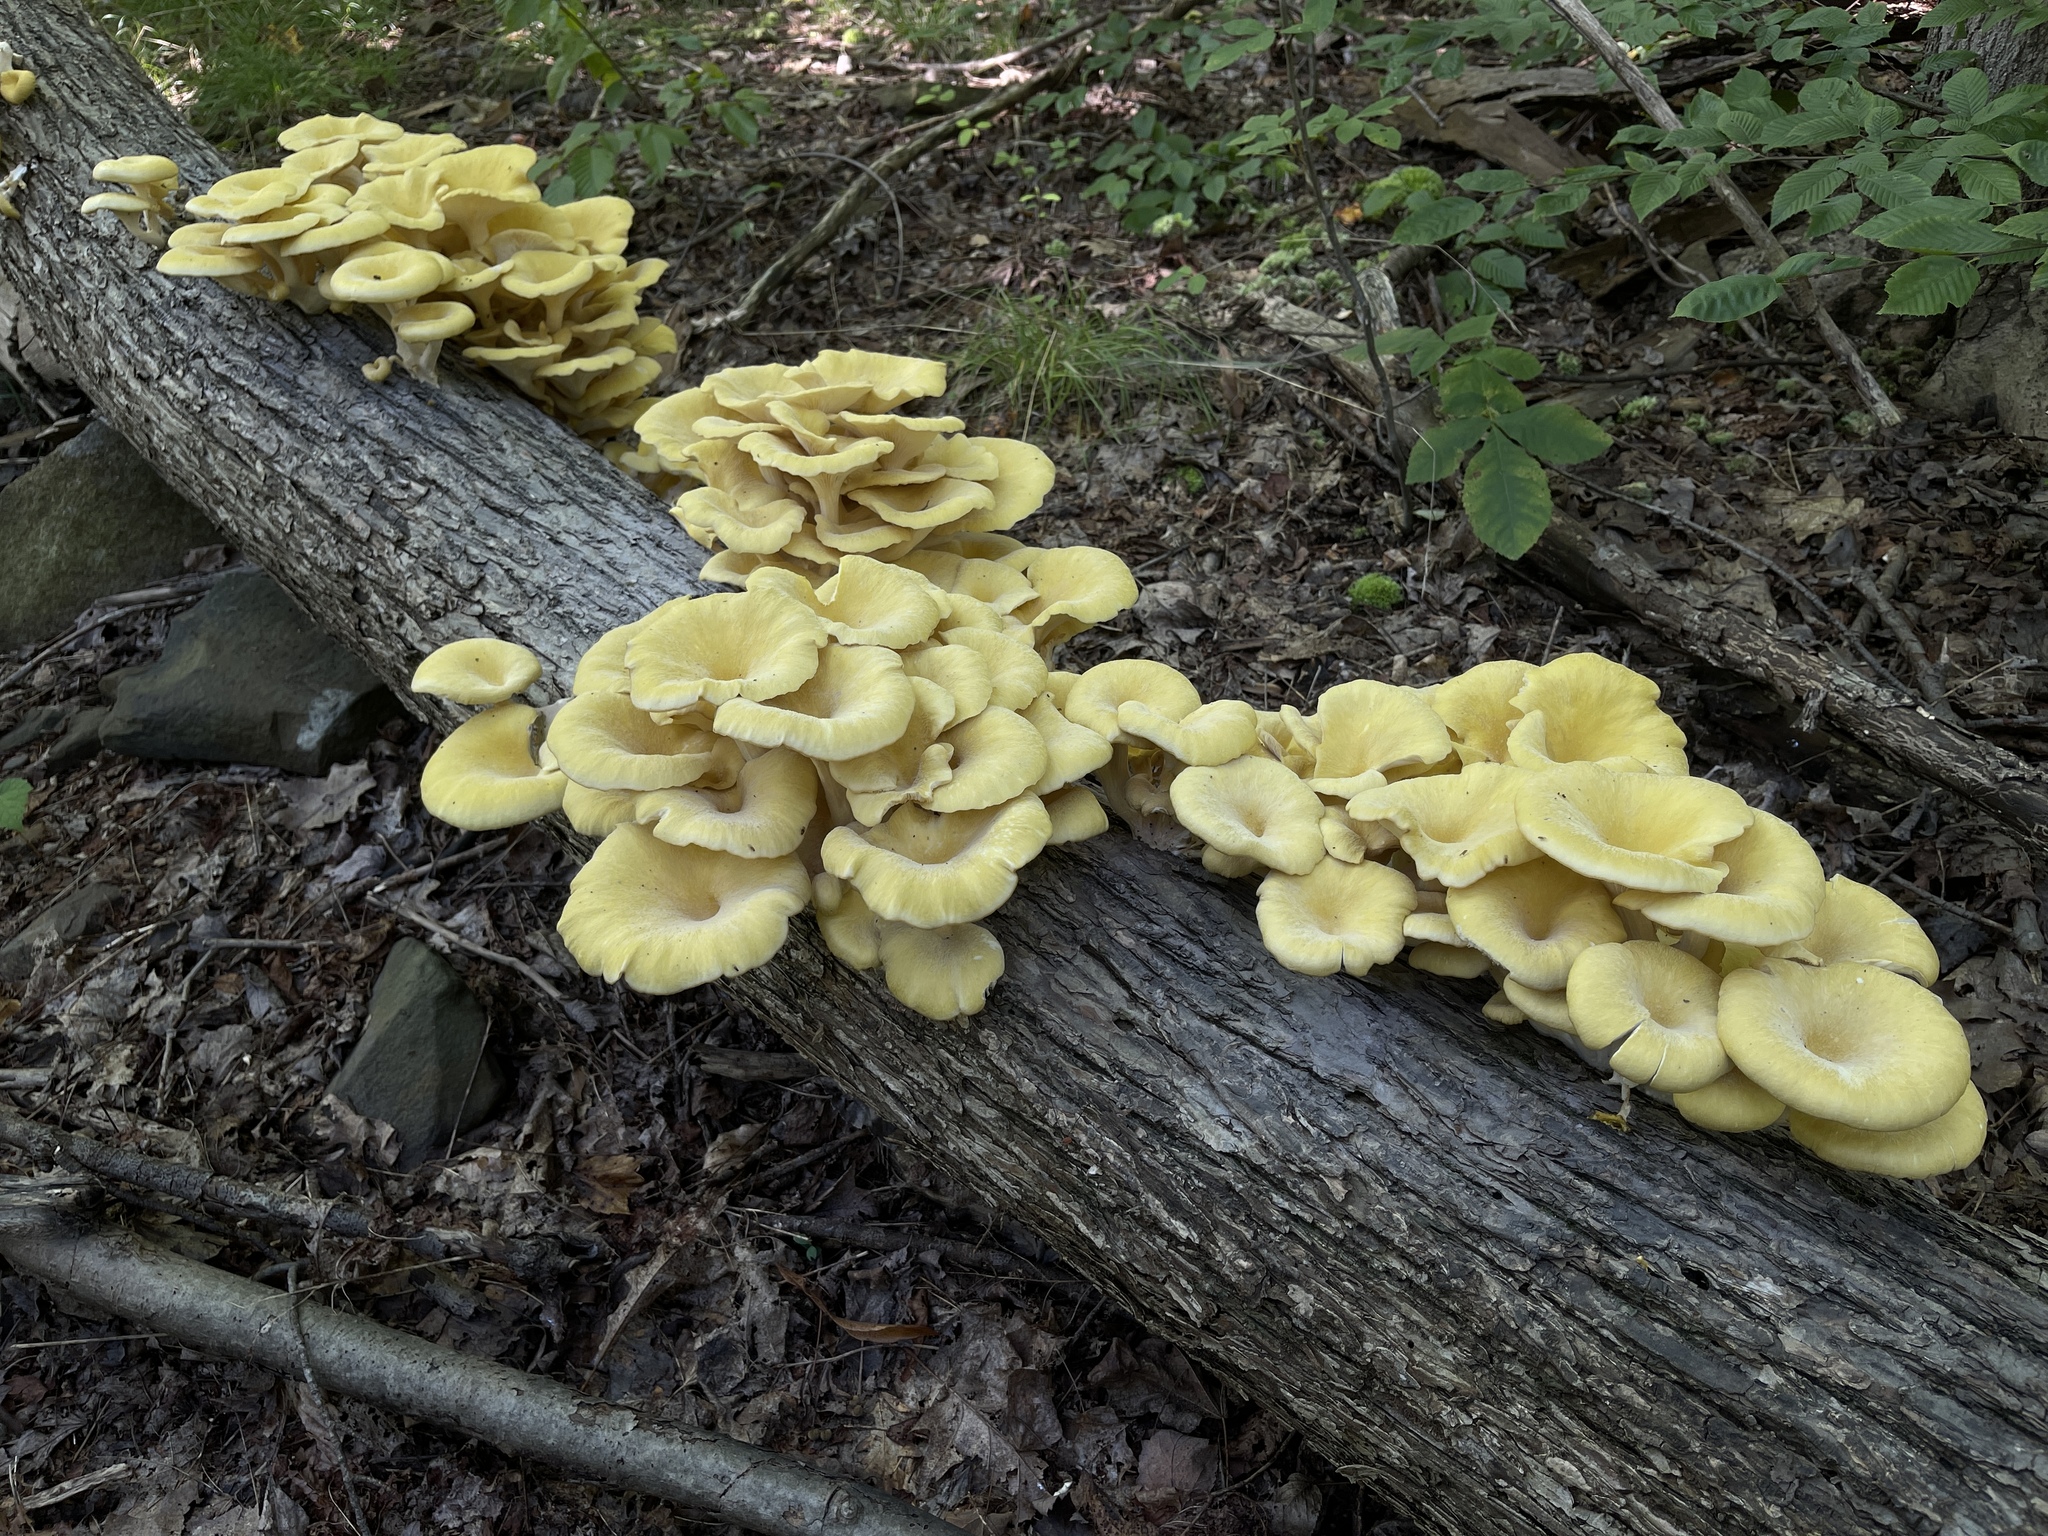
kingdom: Fungi
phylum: Basidiomycota
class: Agaricomycetes
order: Agaricales
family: Pleurotaceae
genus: Pleurotus
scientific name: Pleurotus citrinopileatus
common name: Golden oyster mushroom
